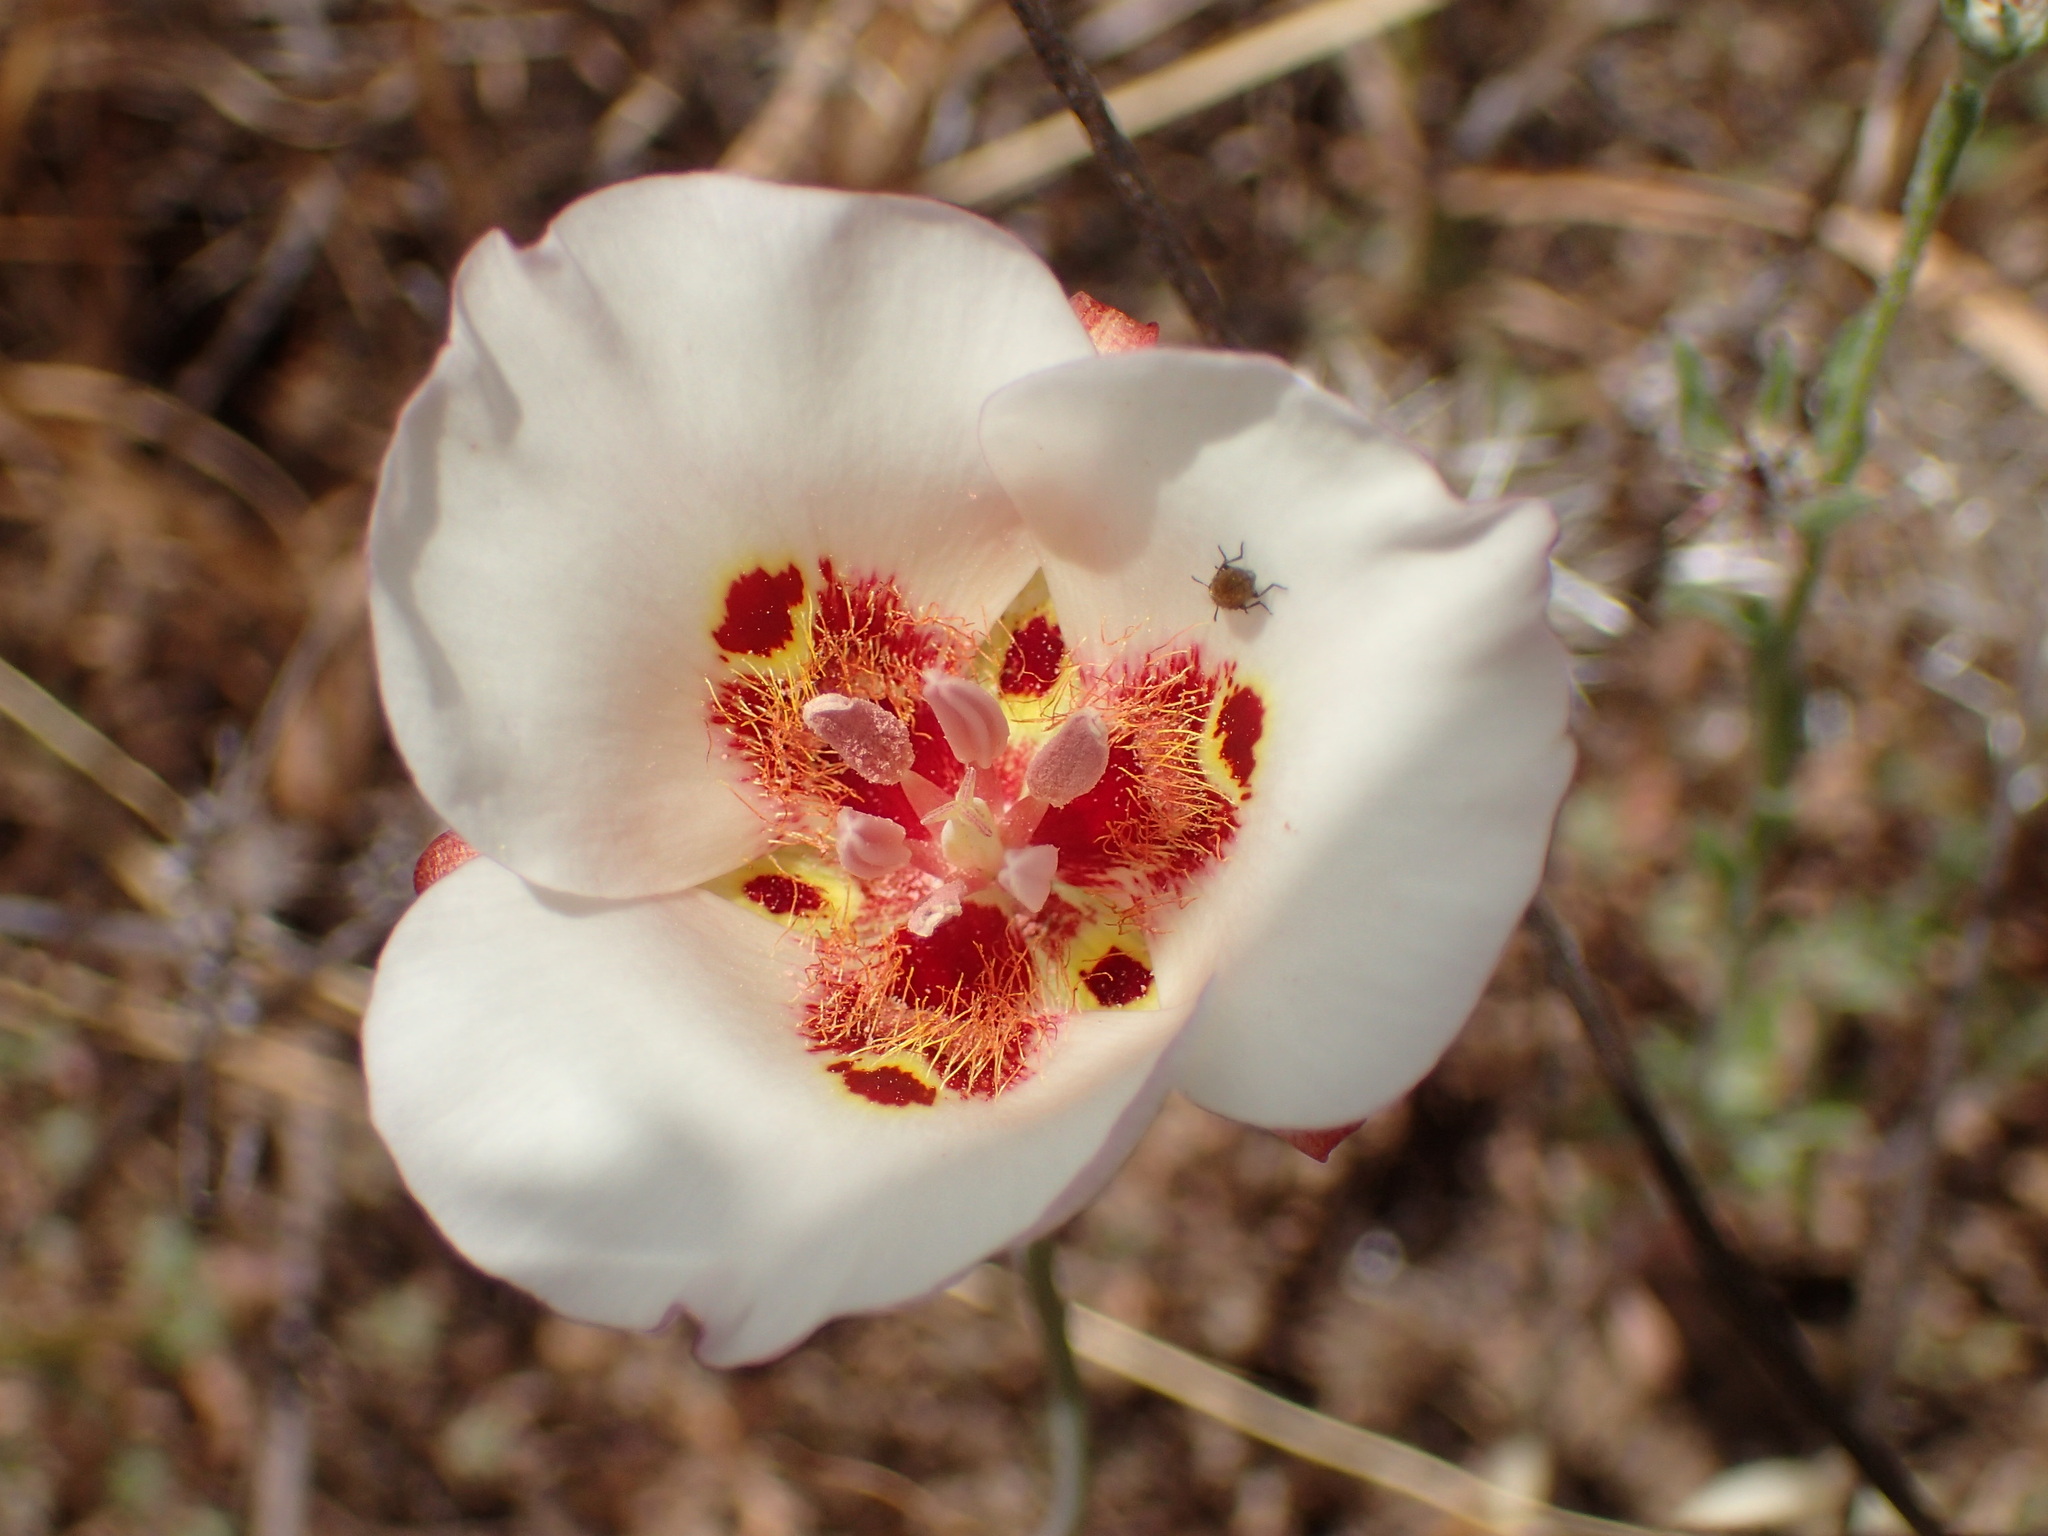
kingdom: Plantae
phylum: Tracheophyta
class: Liliopsida
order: Liliales
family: Liliaceae
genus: Calochortus
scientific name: Calochortus venustus
